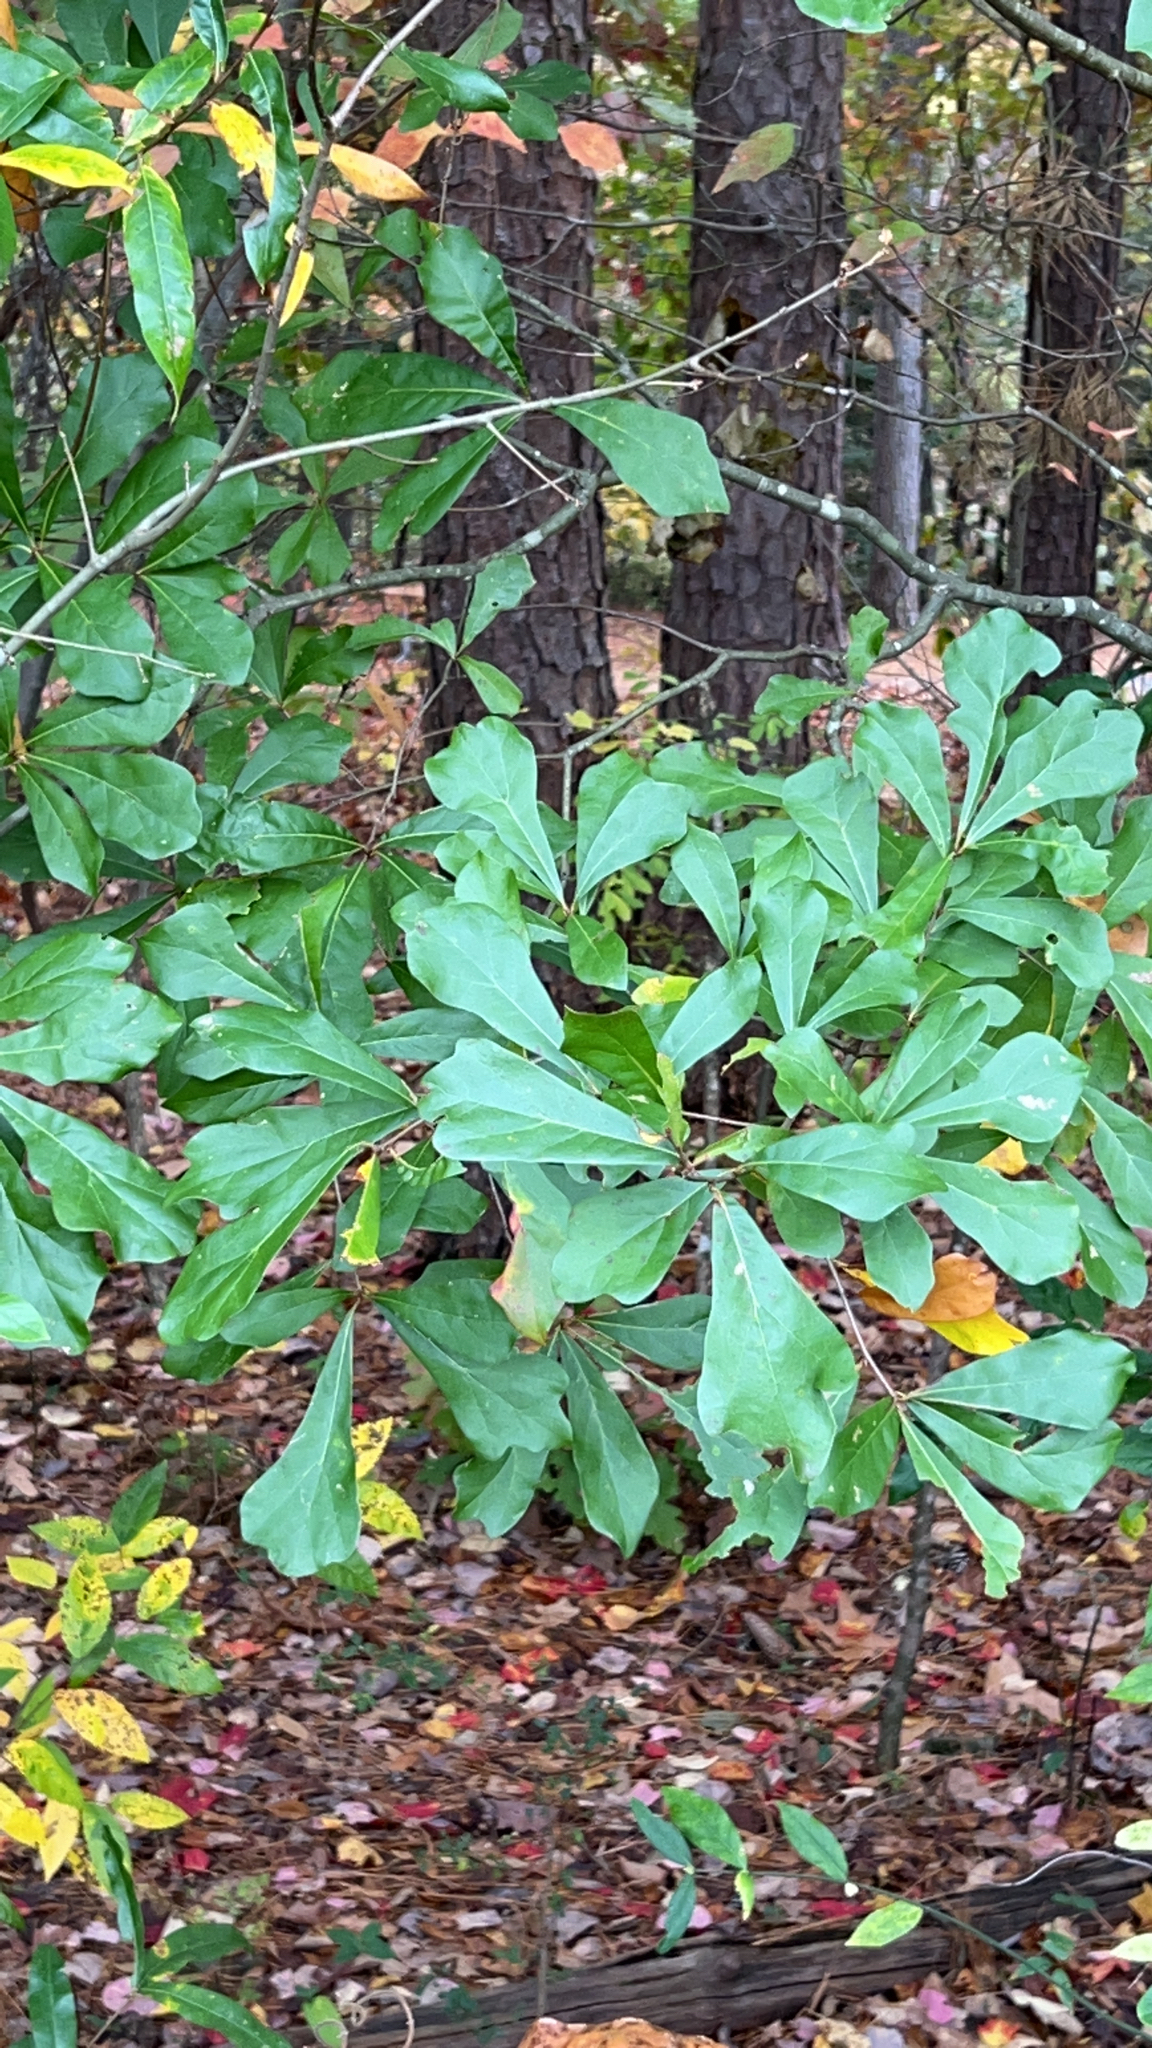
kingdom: Plantae
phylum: Tracheophyta
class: Magnoliopsida
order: Fagales
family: Fagaceae
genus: Quercus
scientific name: Quercus nigra
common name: Water oak
